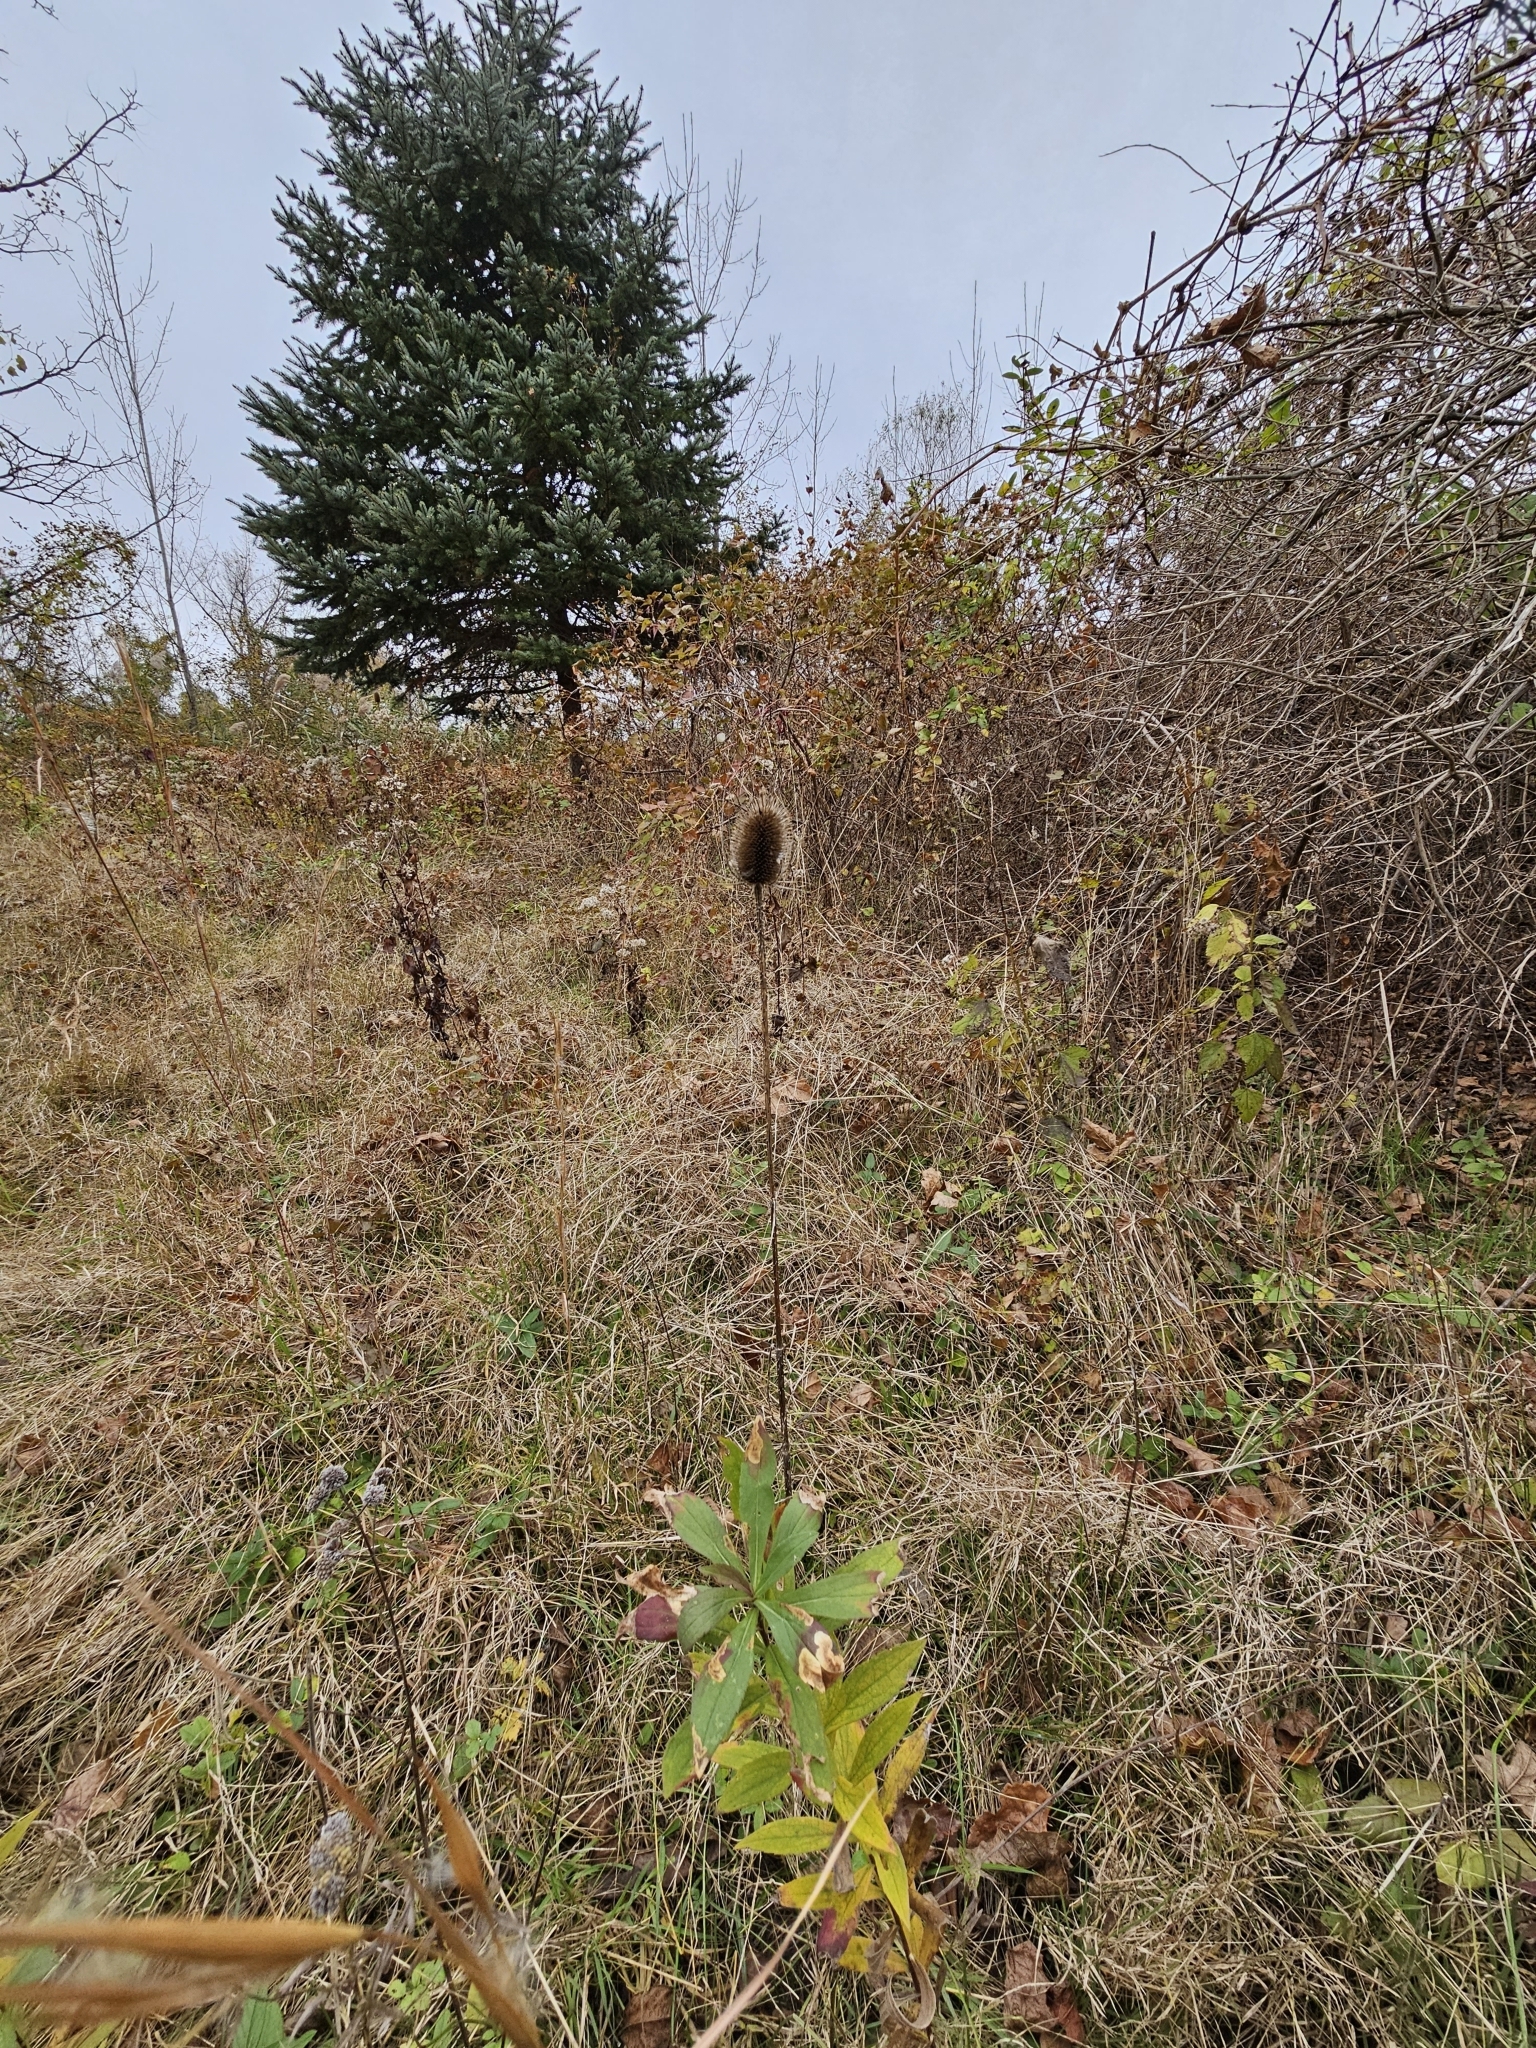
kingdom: Plantae
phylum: Tracheophyta
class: Magnoliopsida
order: Dipsacales
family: Caprifoliaceae
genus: Dipsacus
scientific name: Dipsacus fullonum
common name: Teasel
